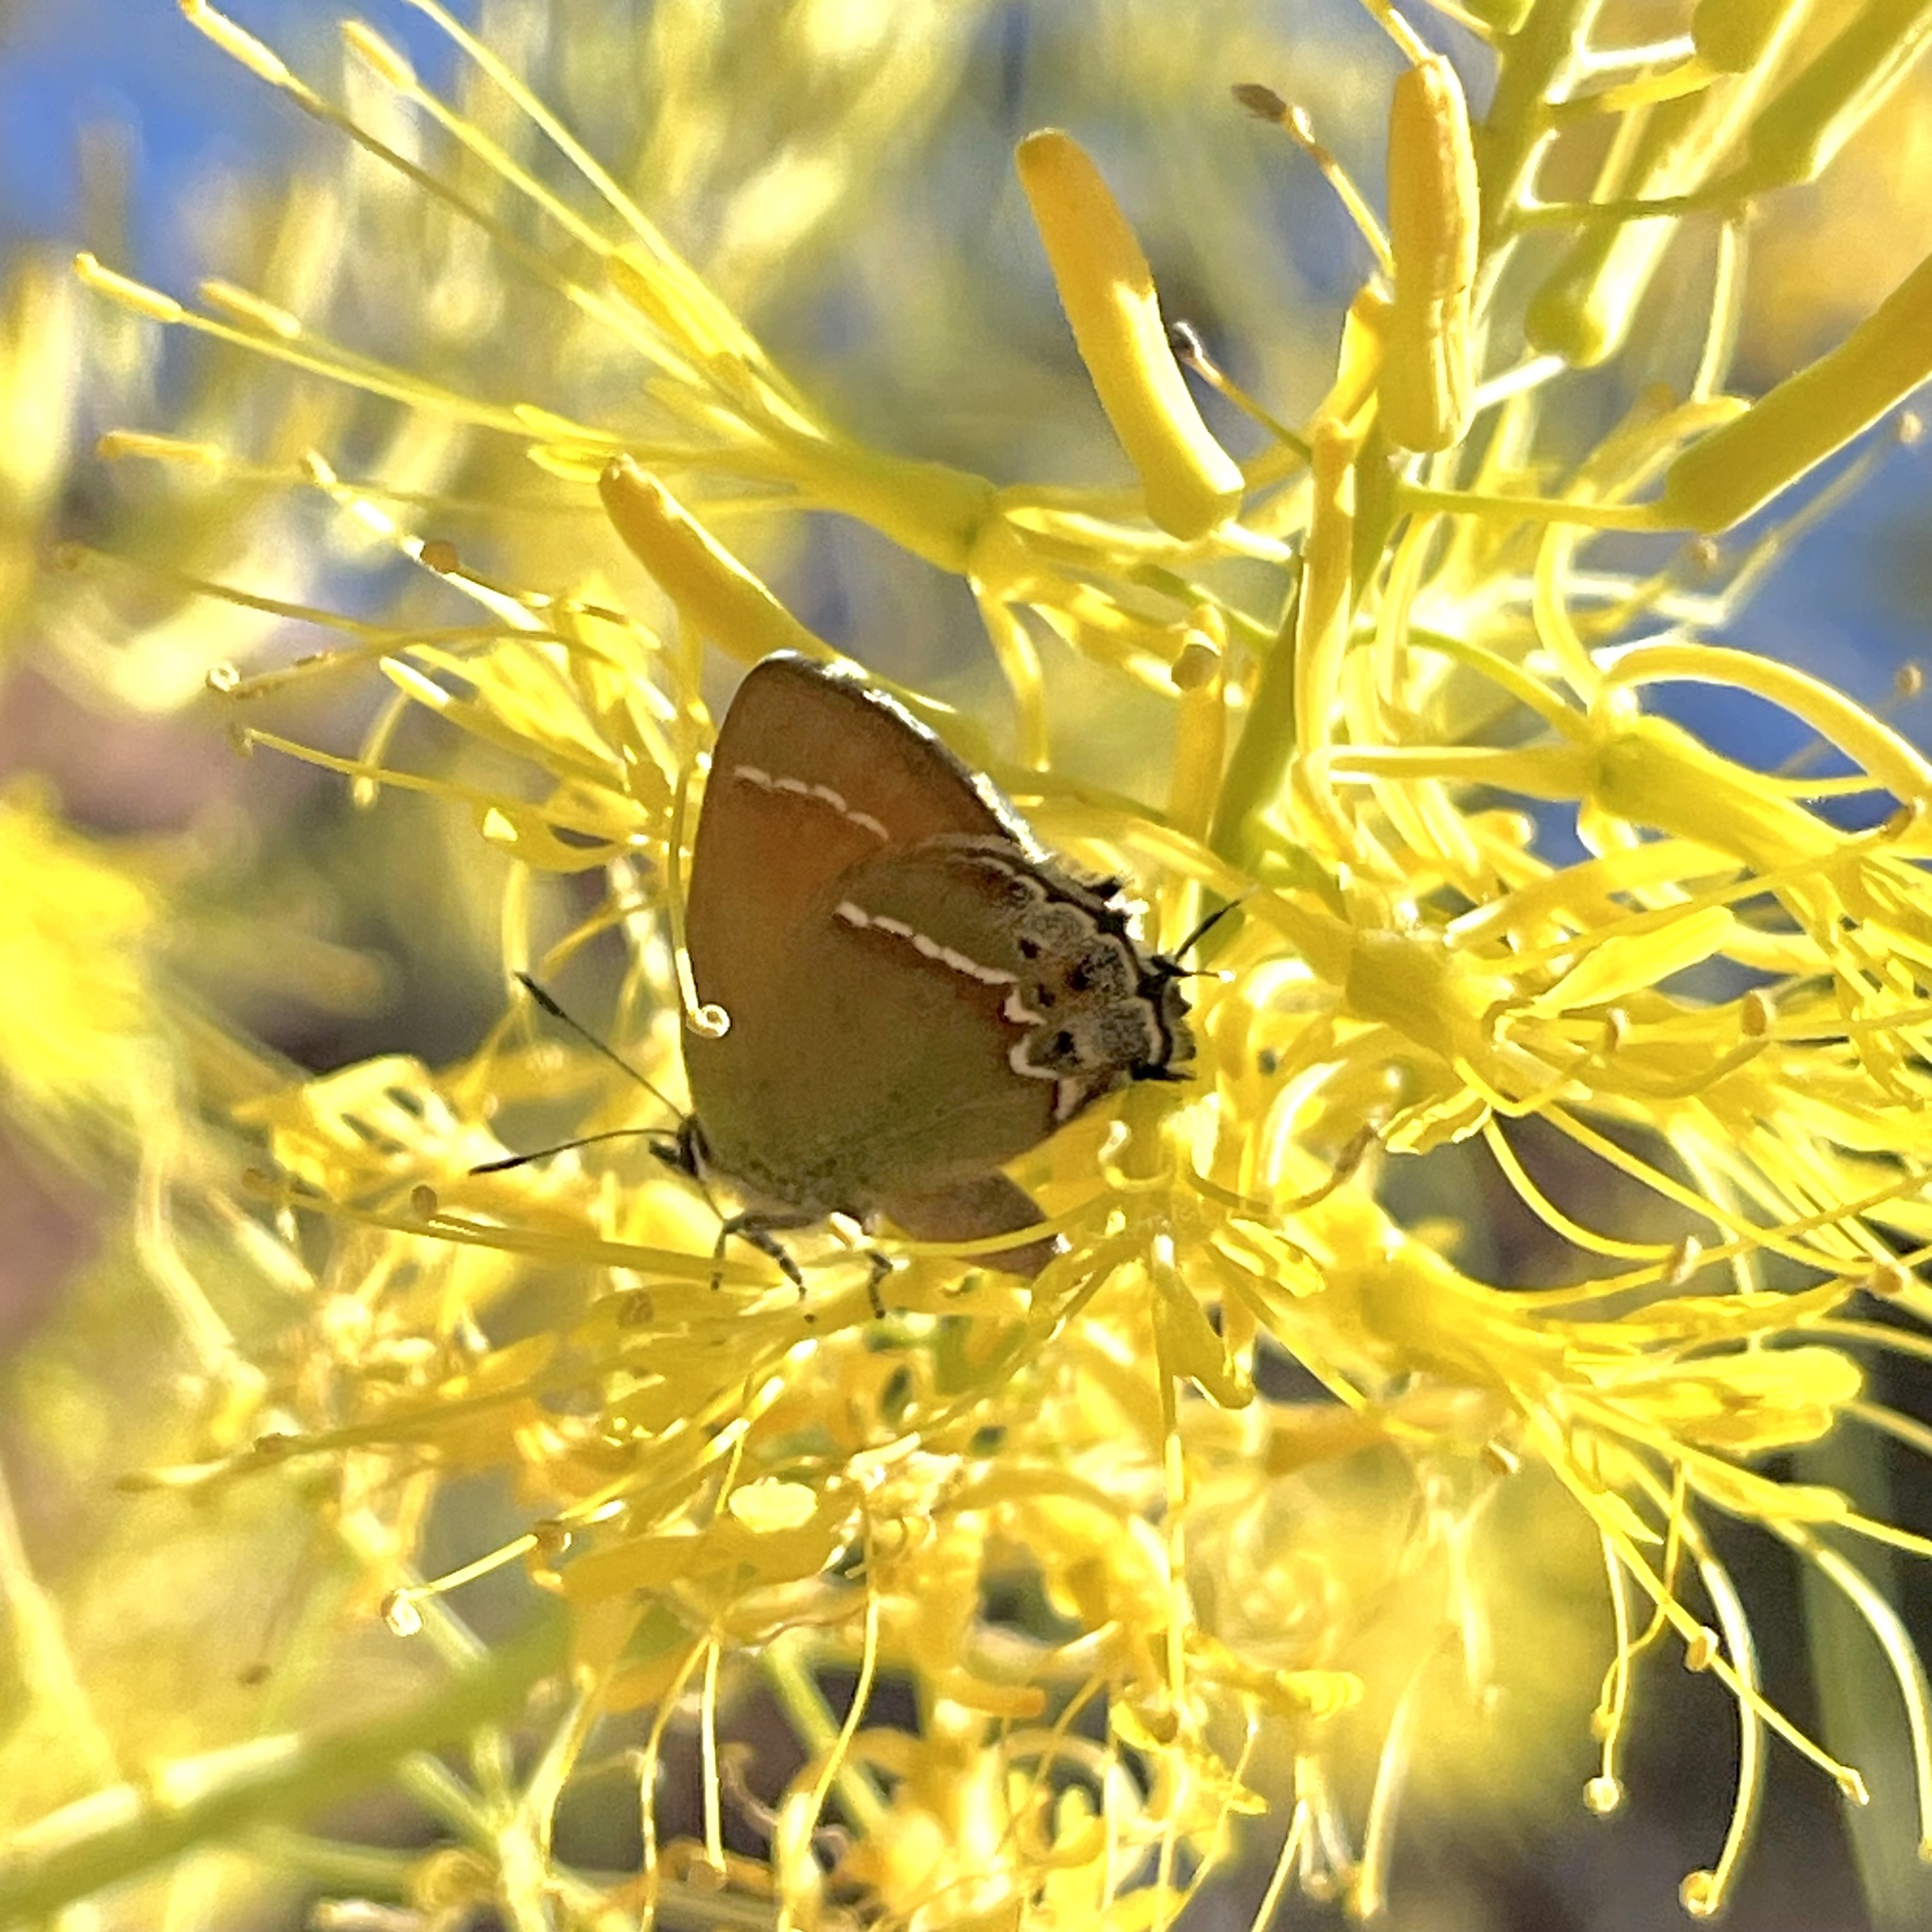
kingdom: Animalia
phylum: Arthropoda
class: Insecta
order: Lepidoptera
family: Lycaenidae
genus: Mitoura
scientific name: Mitoura siva
